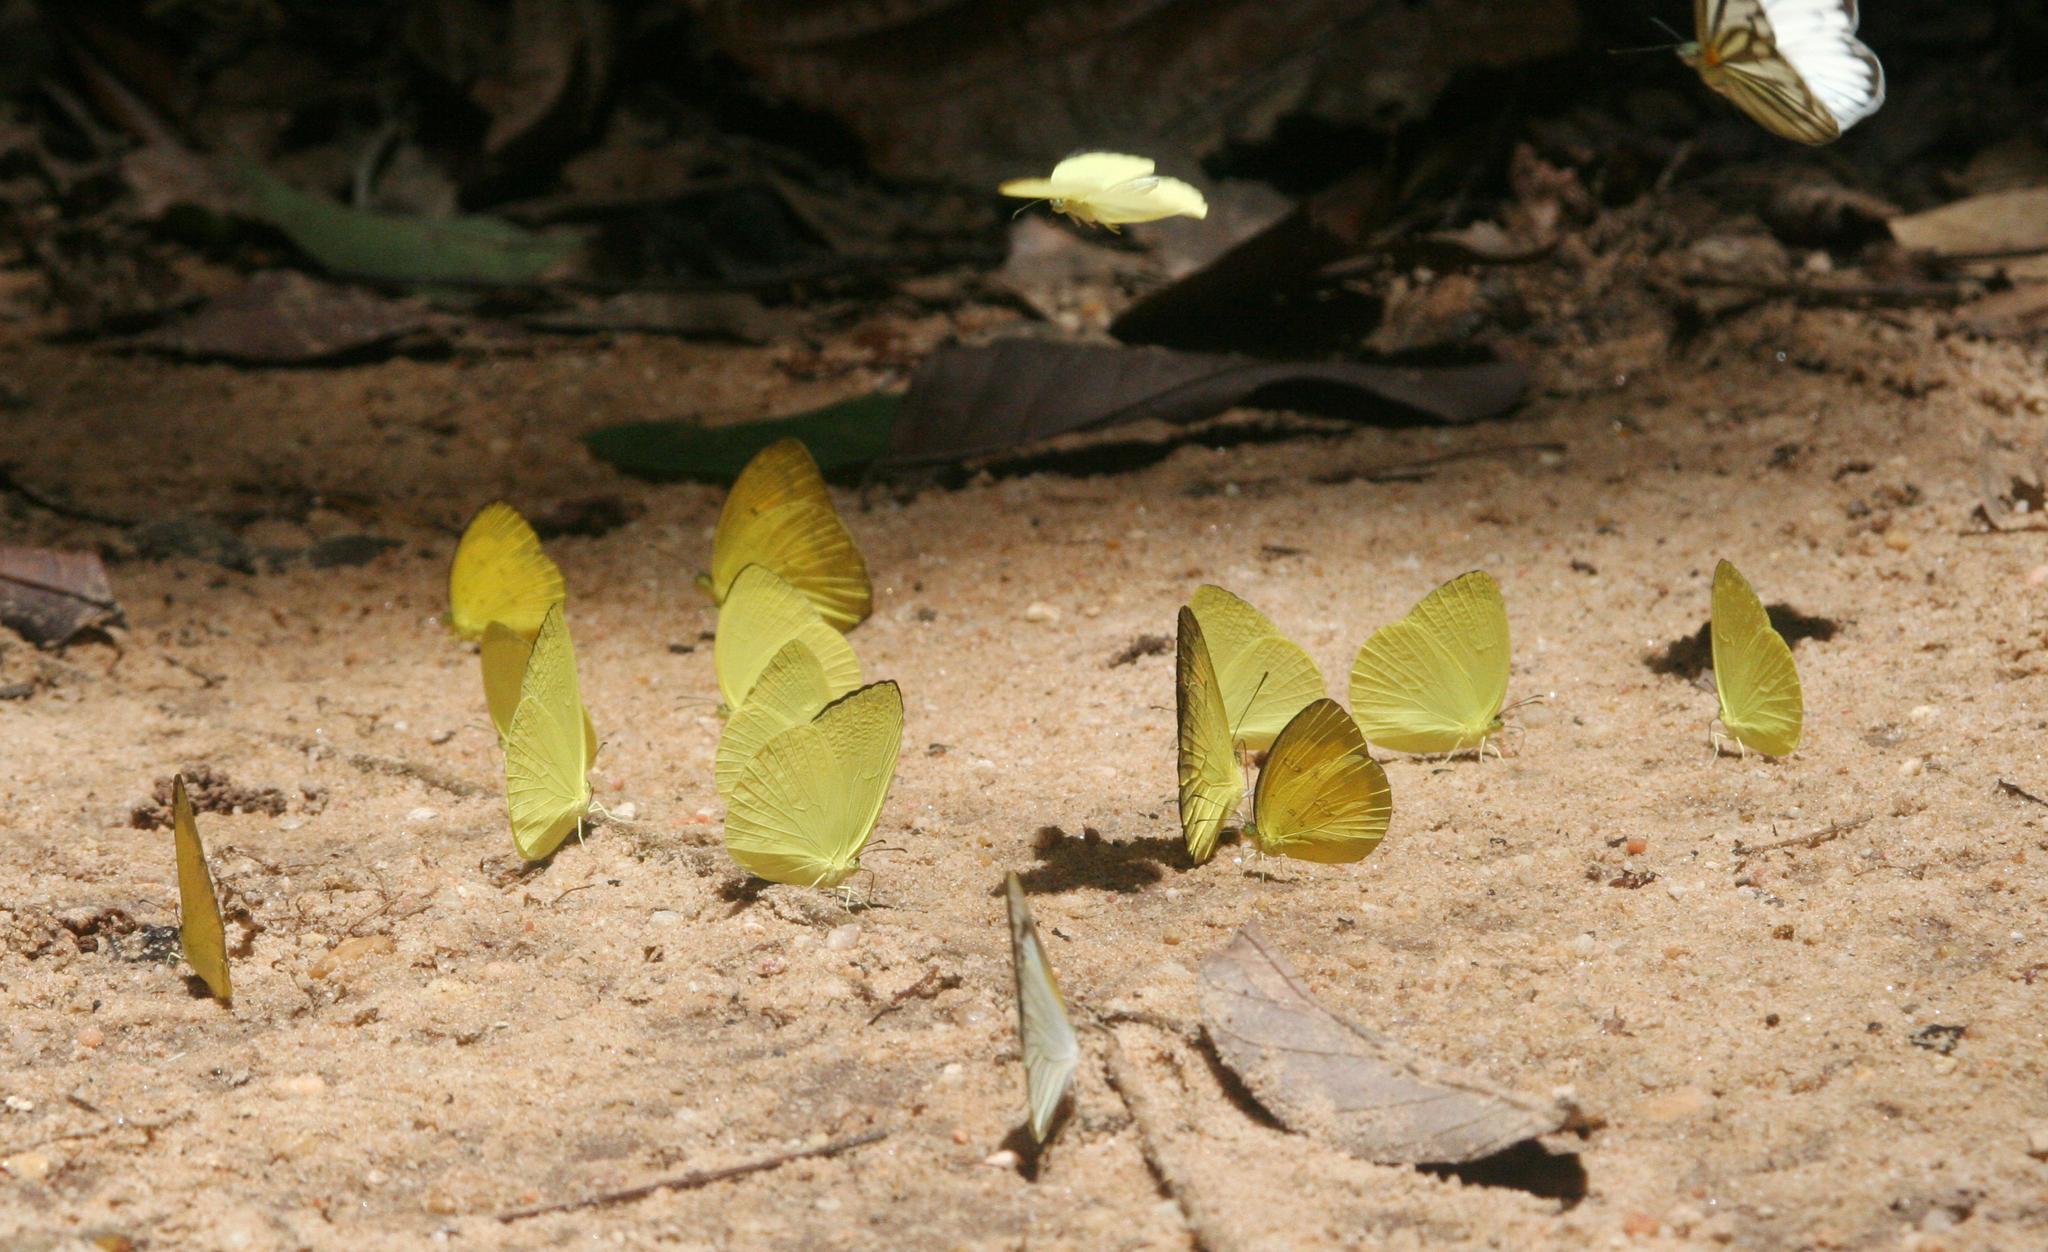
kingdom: Animalia
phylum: Arthropoda
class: Insecta
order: Lepidoptera
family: Pieridae
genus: Eurema
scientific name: Eurema andersoni
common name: One-spot yellow grass
